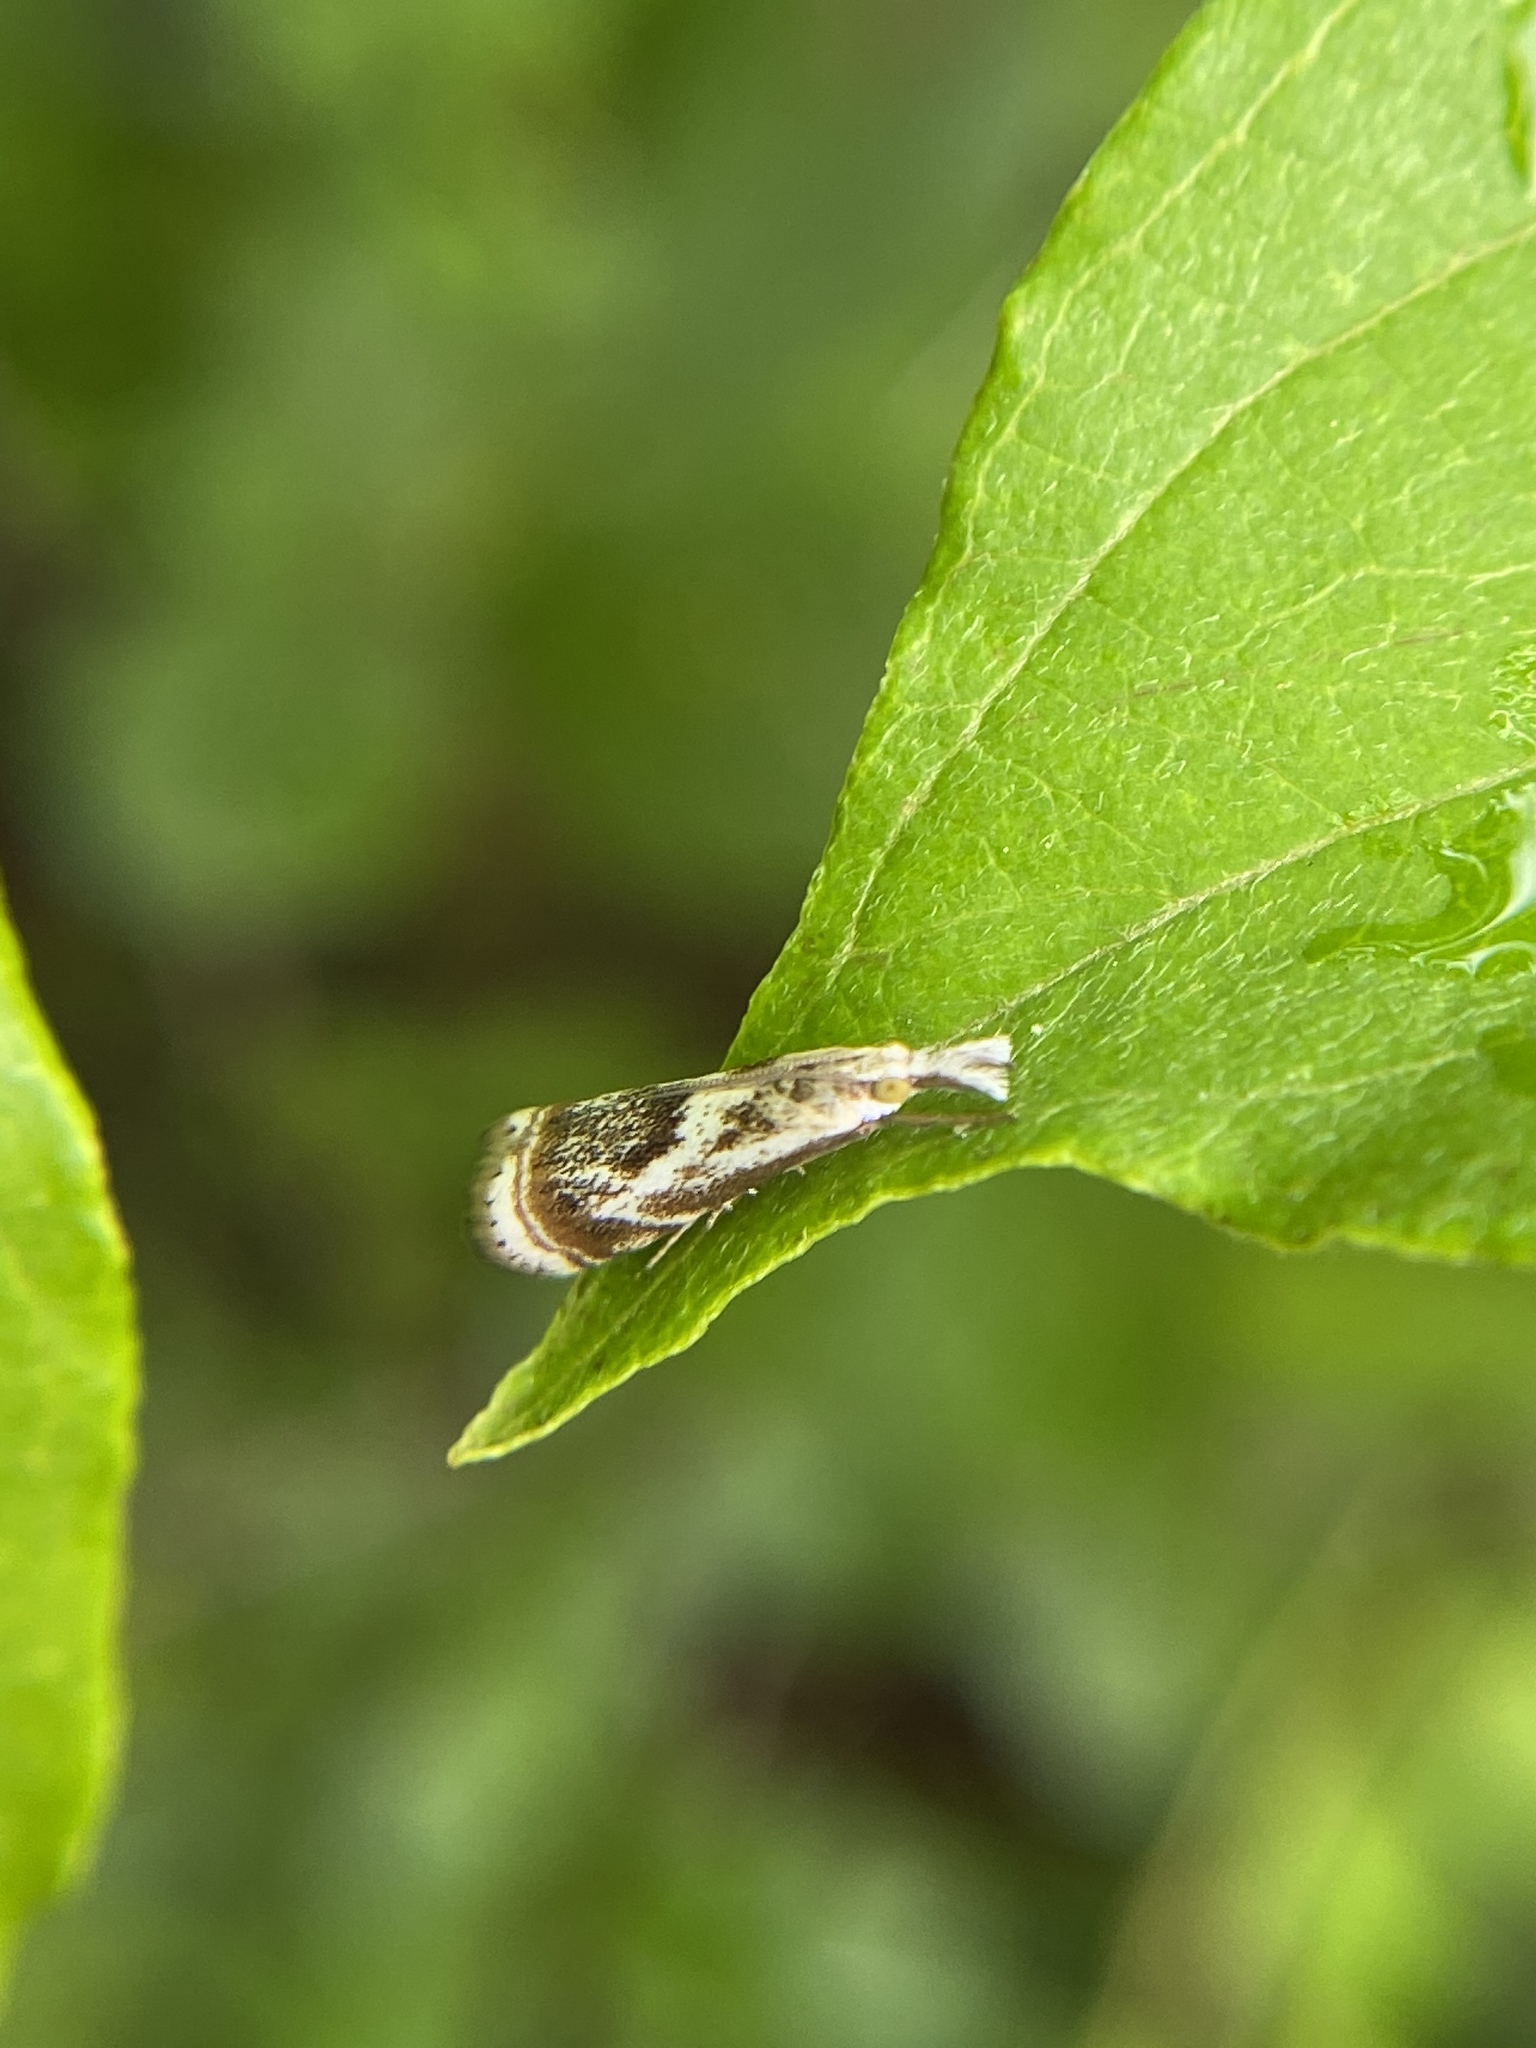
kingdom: Animalia
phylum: Arthropoda
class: Insecta
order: Lepidoptera
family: Crambidae
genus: Microcrambus
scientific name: Microcrambus elegans
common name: Elegant grass-veneer
